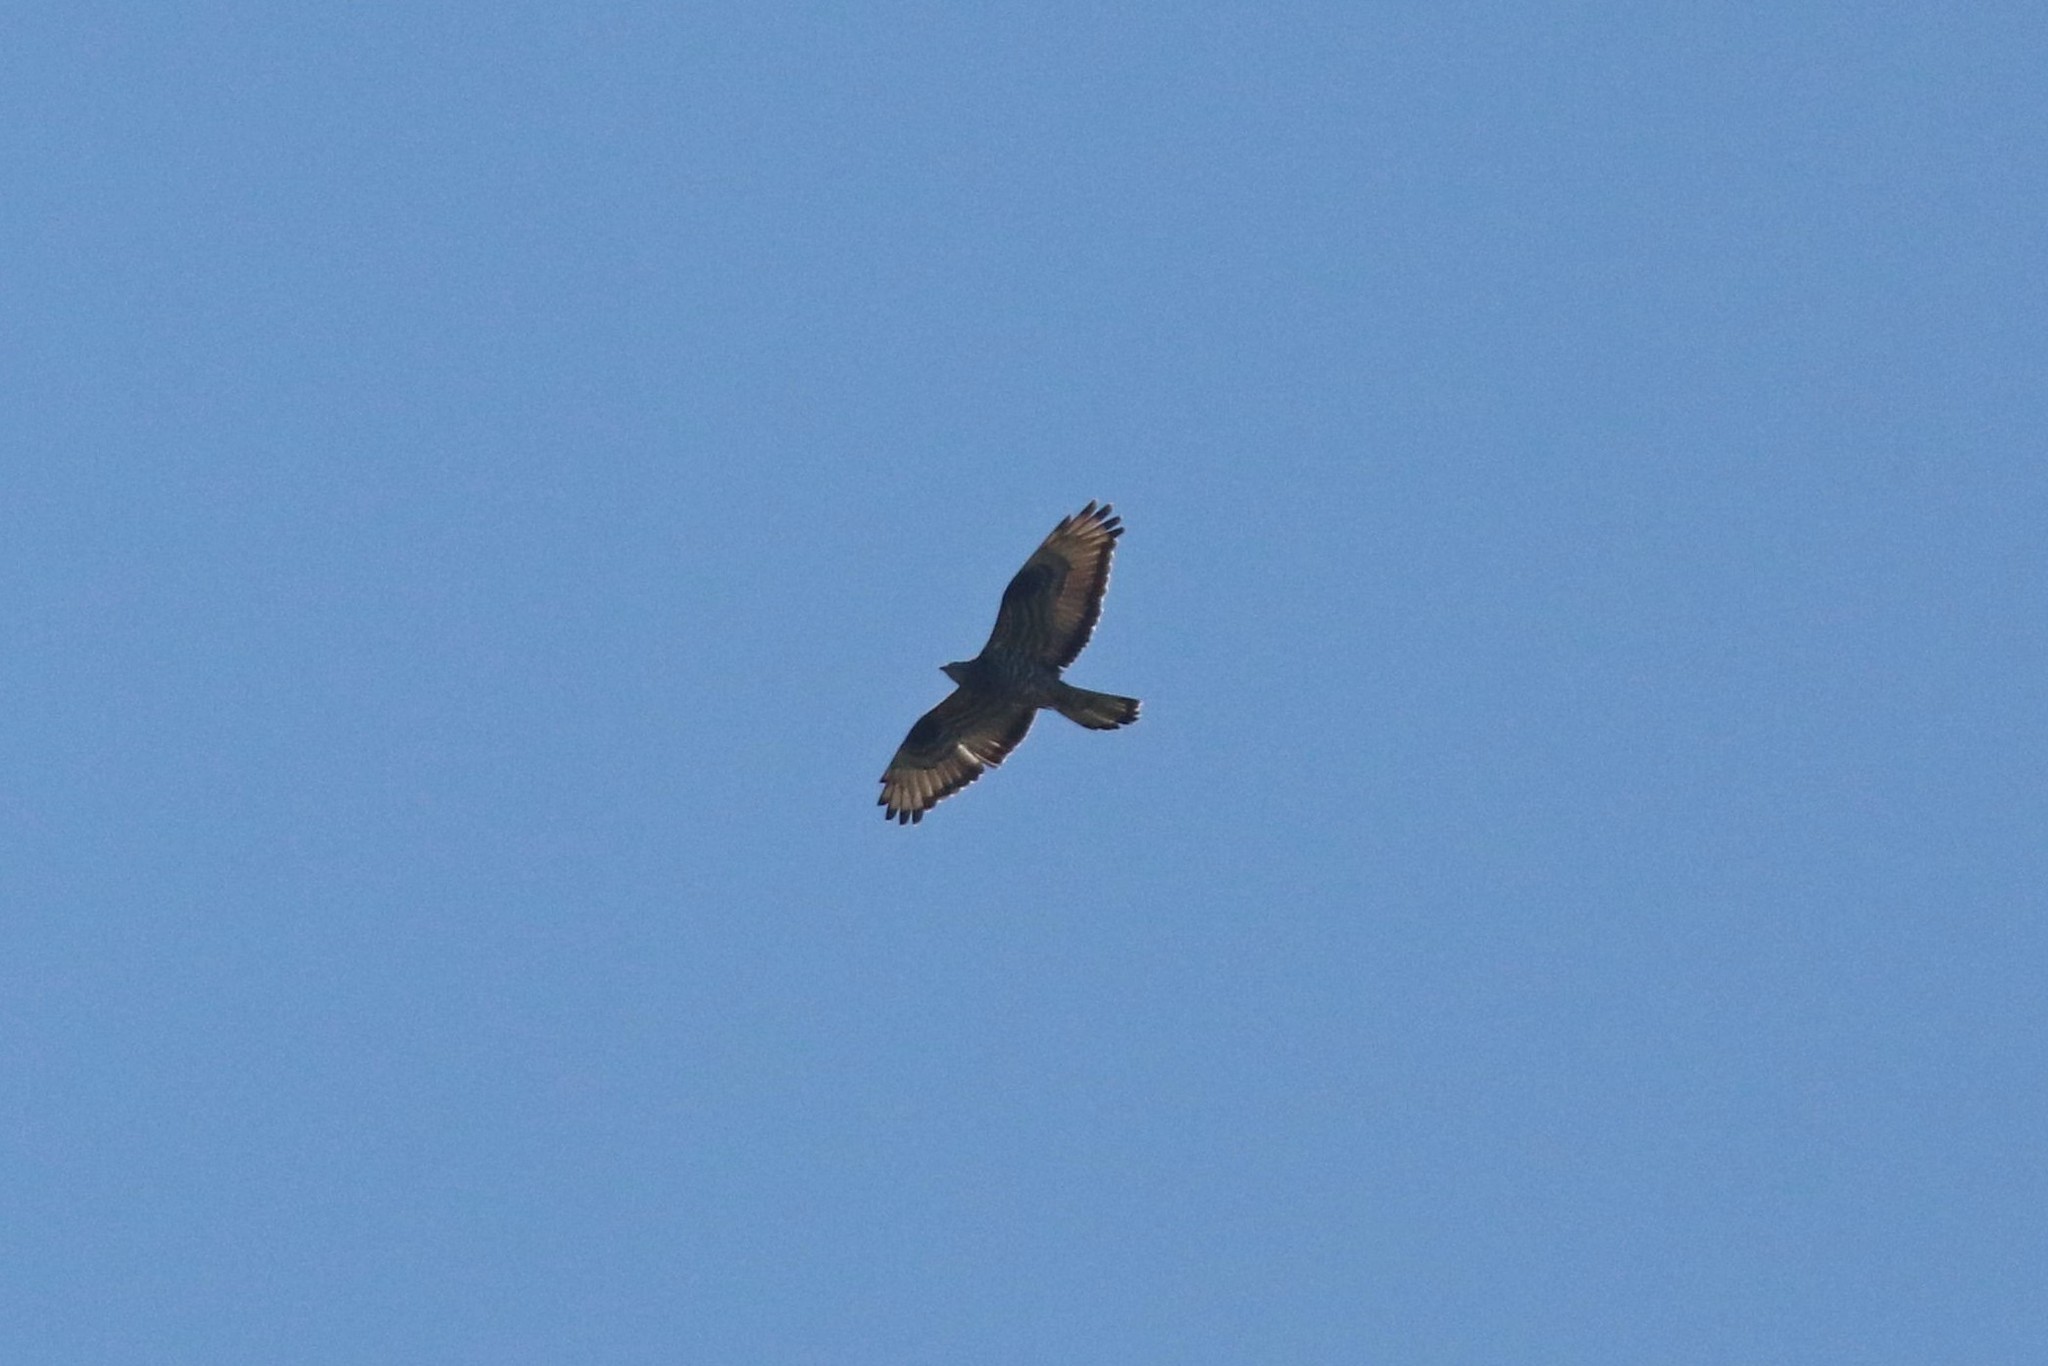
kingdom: Animalia
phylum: Chordata
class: Aves
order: Accipitriformes
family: Accipitridae
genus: Pernis
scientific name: Pernis apivorus
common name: European honey buzzard
